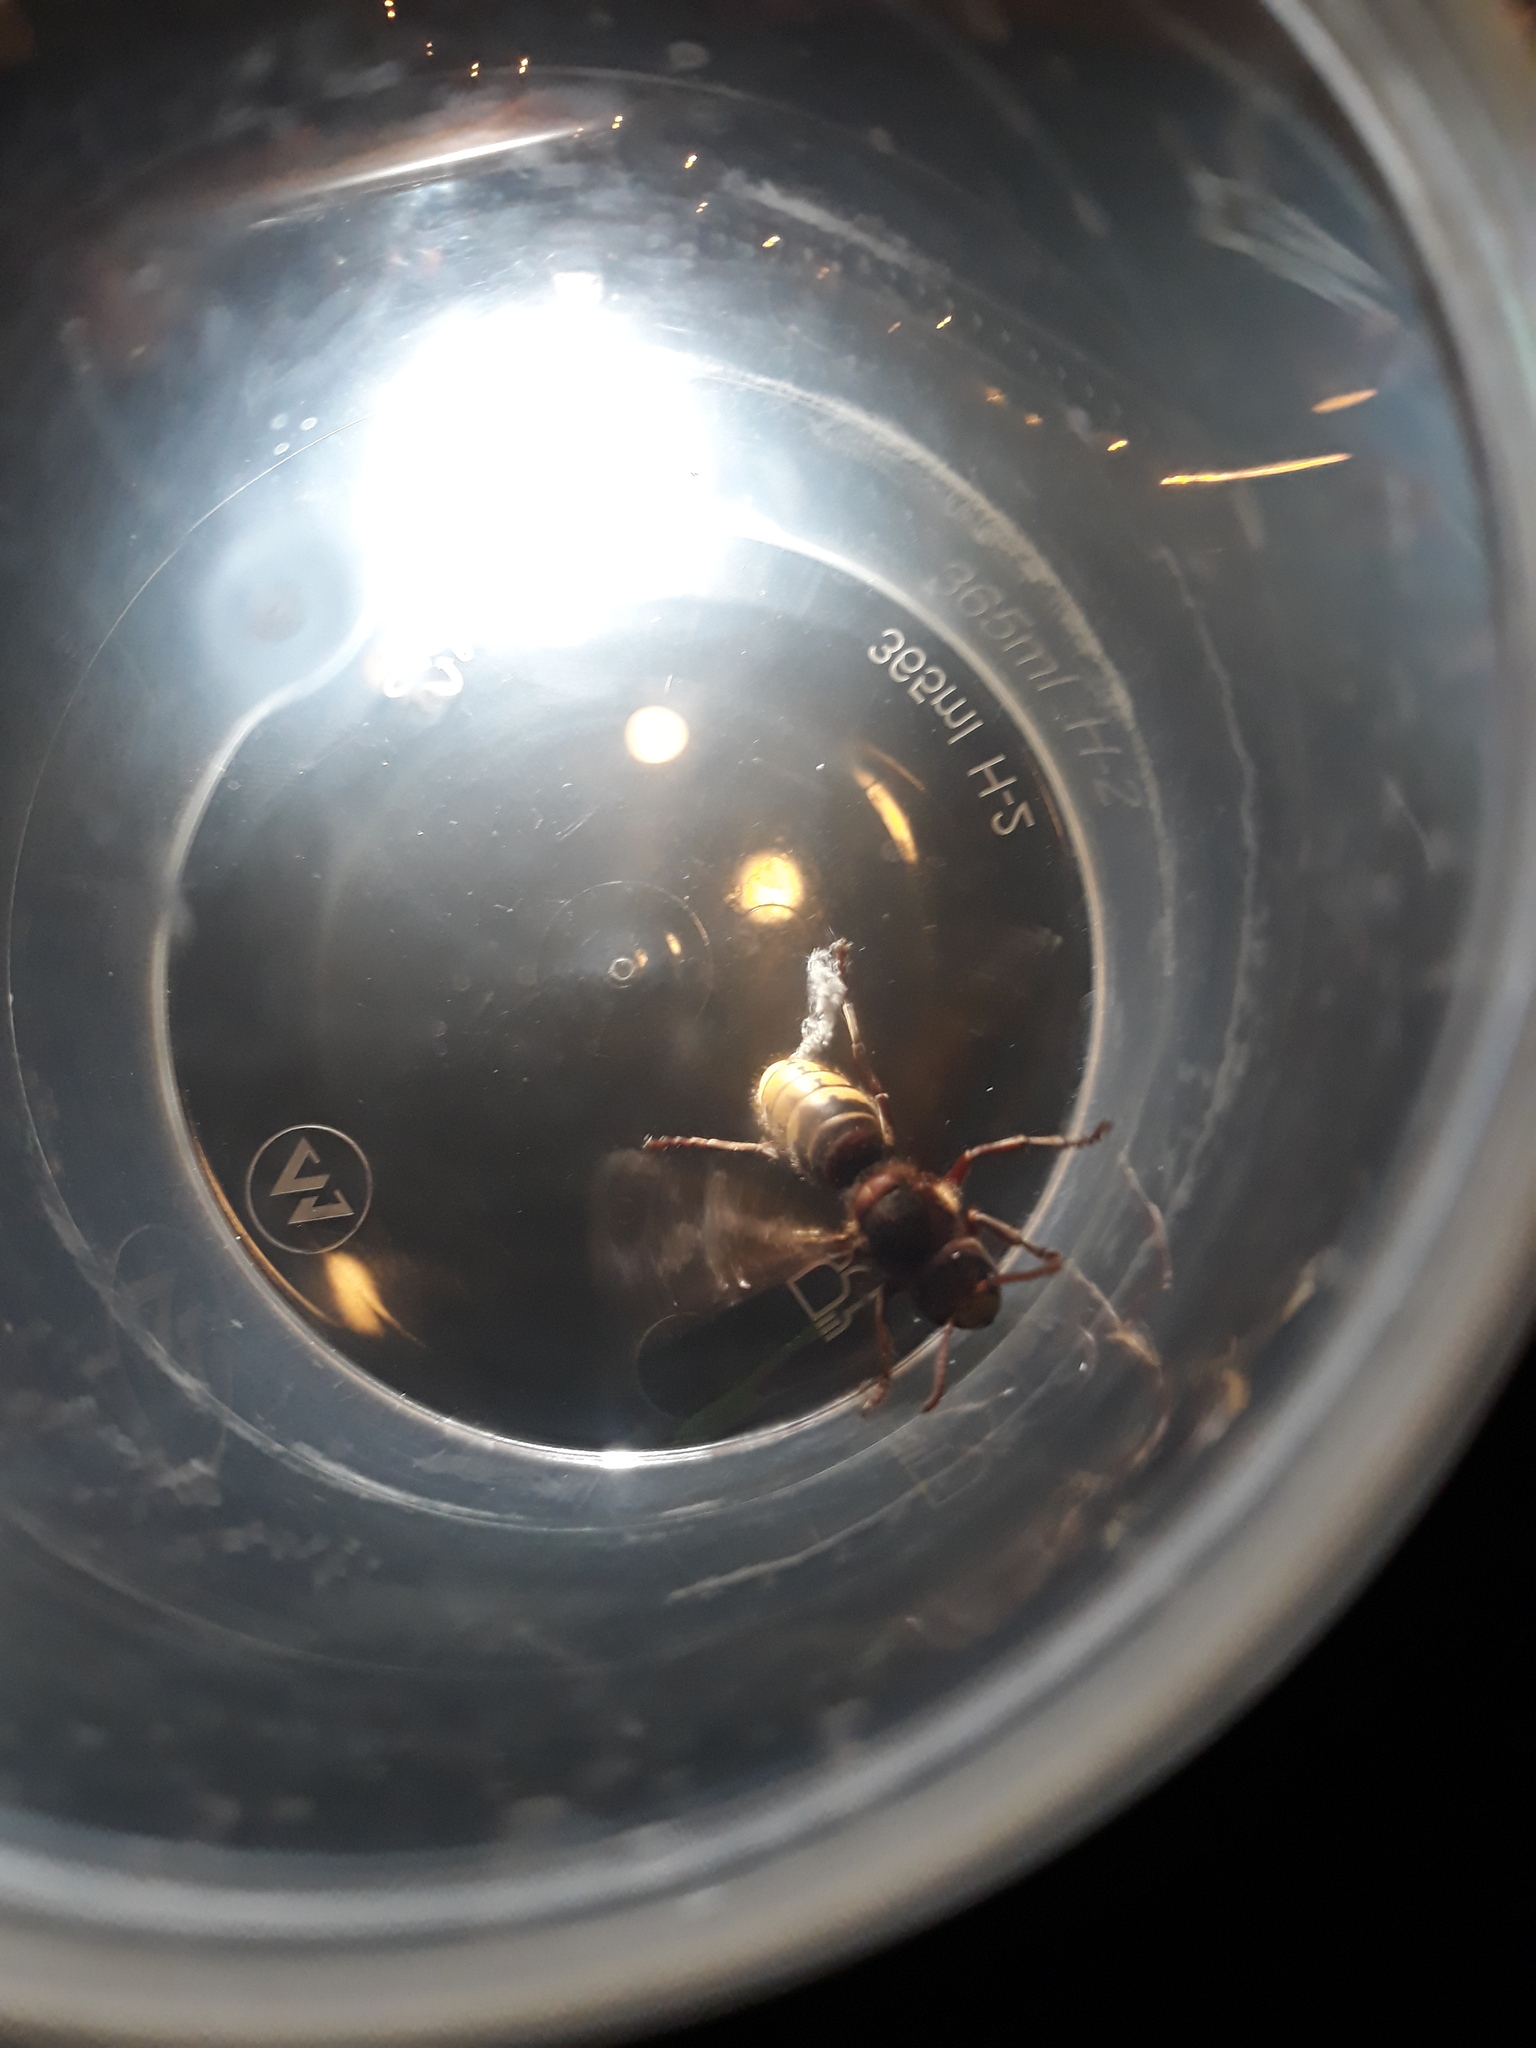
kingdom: Animalia
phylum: Arthropoda
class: Insecta
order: Hymenoptera
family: Vespidae
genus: Vespa
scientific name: Vespa crabro
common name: Hornet
